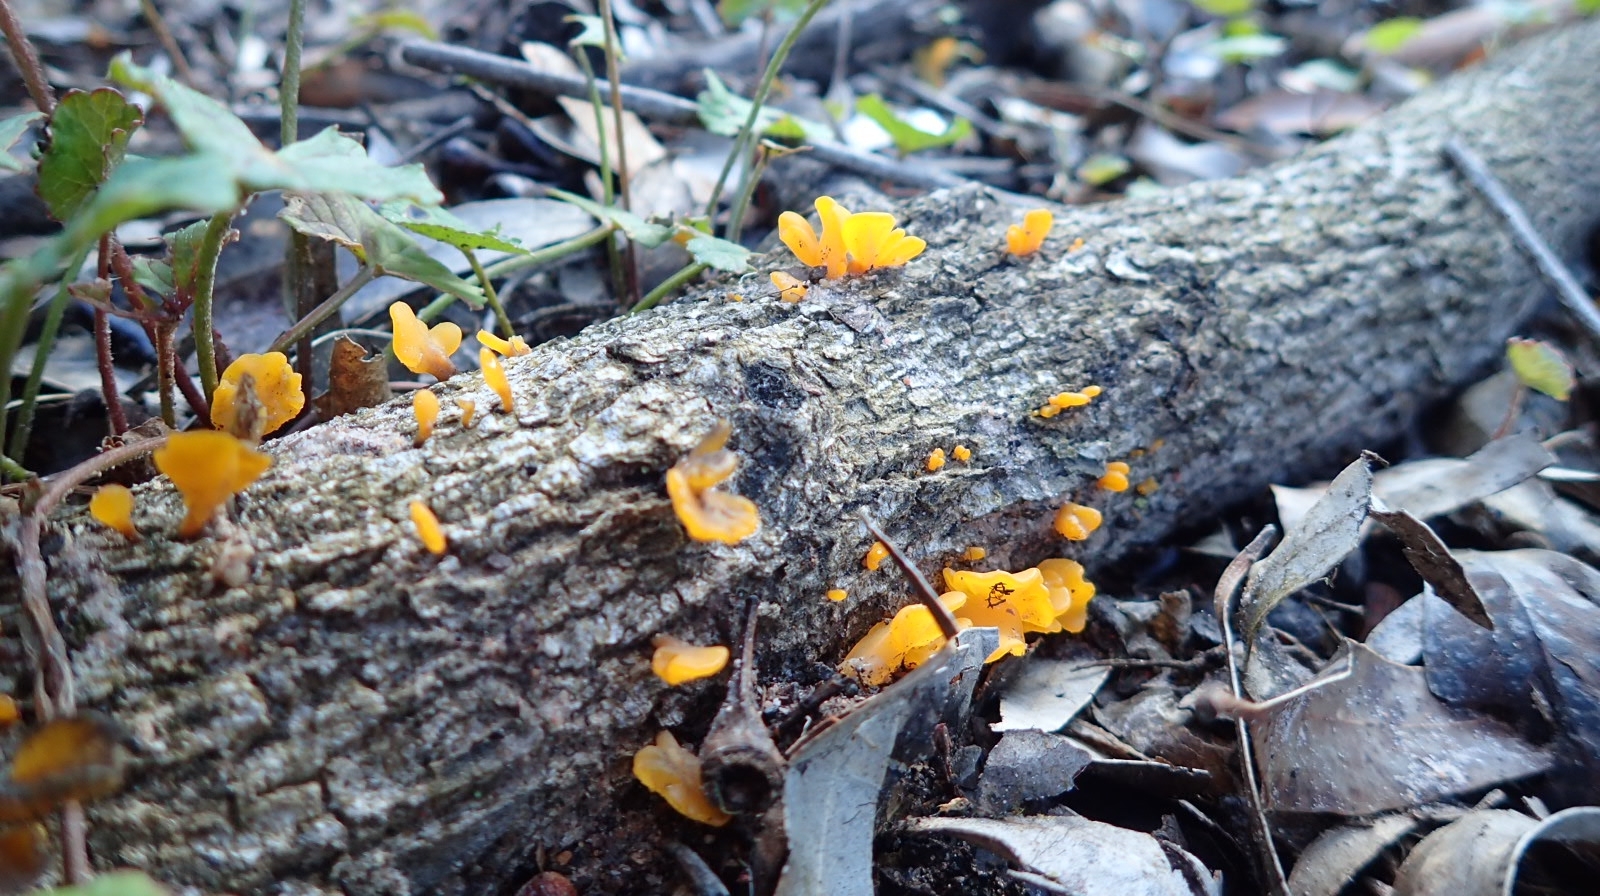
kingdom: Fungi
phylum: Basidiomycota
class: Dacrymycetes
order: Dacrymycetales
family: Dacrymycetaceae
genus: Dacrymyces
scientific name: Dacrymyces spathularius
